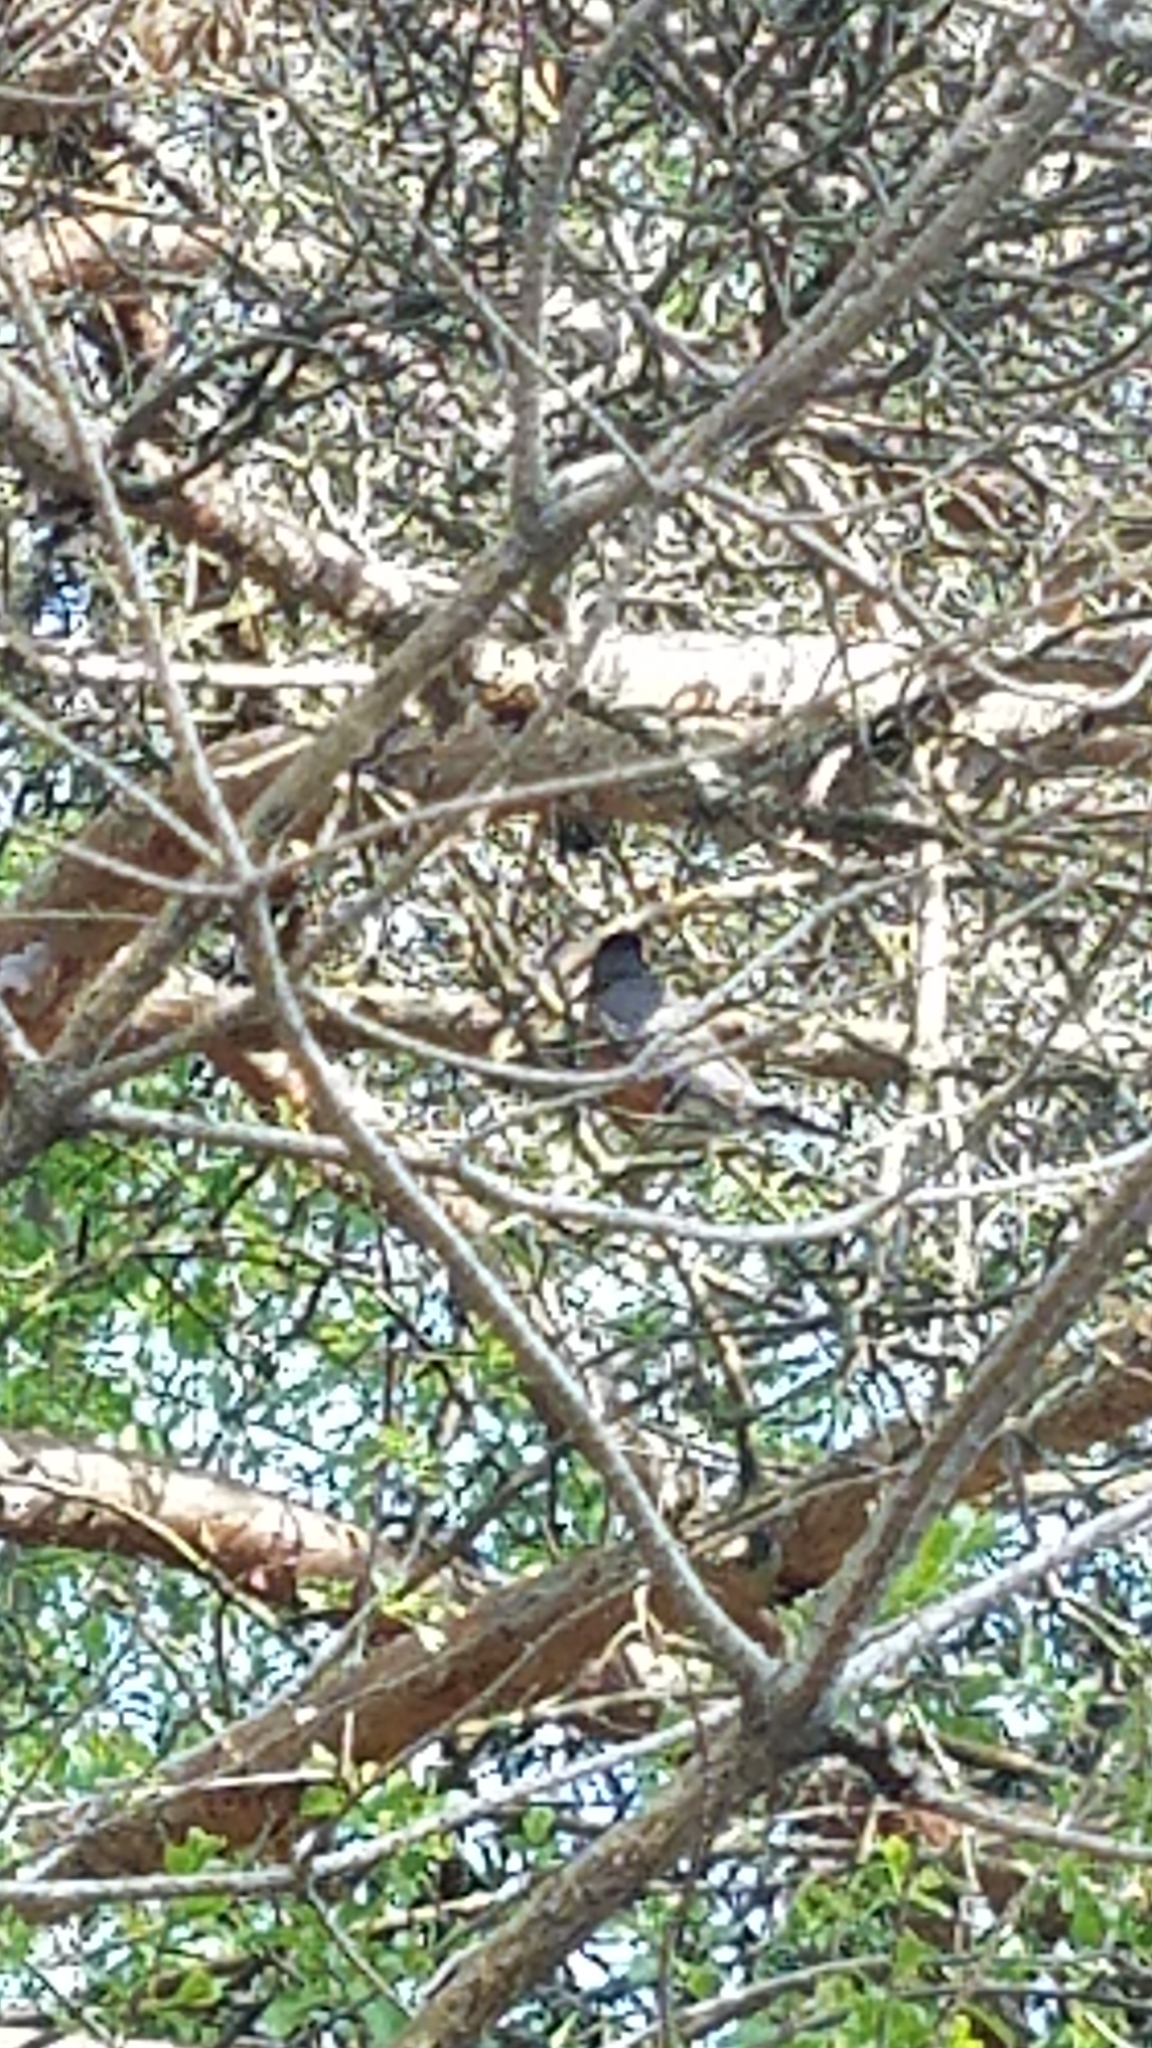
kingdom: Animalia
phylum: Chordata
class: Aves
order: Passeriformes
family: Turdidae
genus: Turdus
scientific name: Turdus migratorius
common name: American robin
